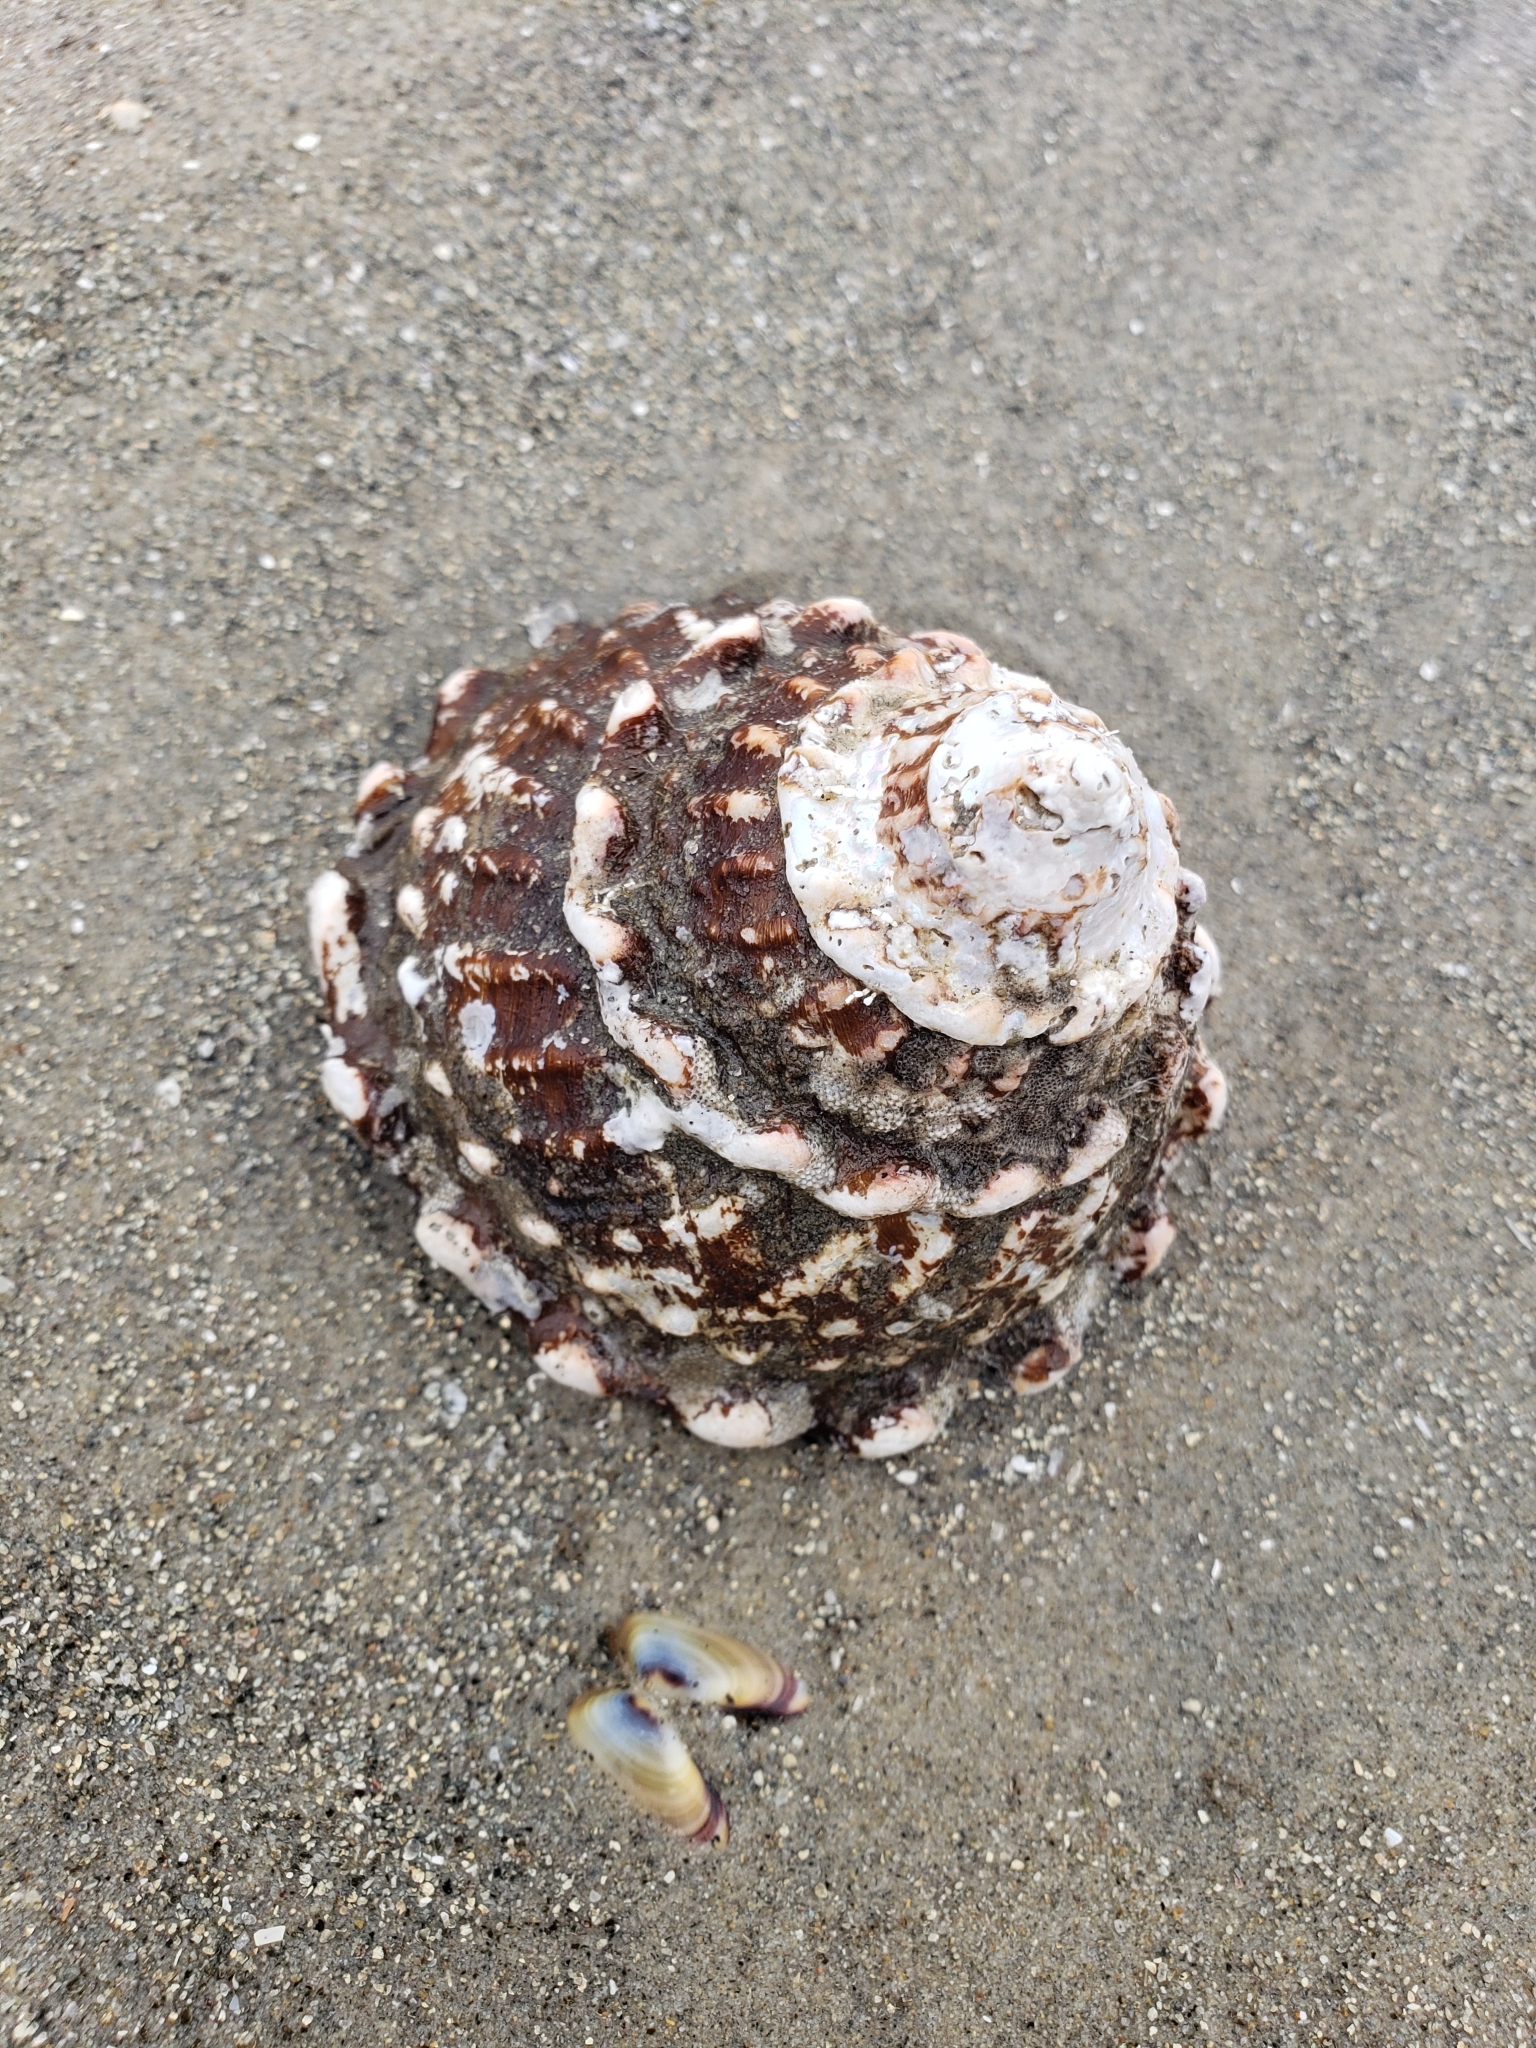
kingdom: Animalia
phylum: Mollusca
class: Gastropoda
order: Trochida
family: Turbinidae
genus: Megastraea
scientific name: Megastraea undosa
